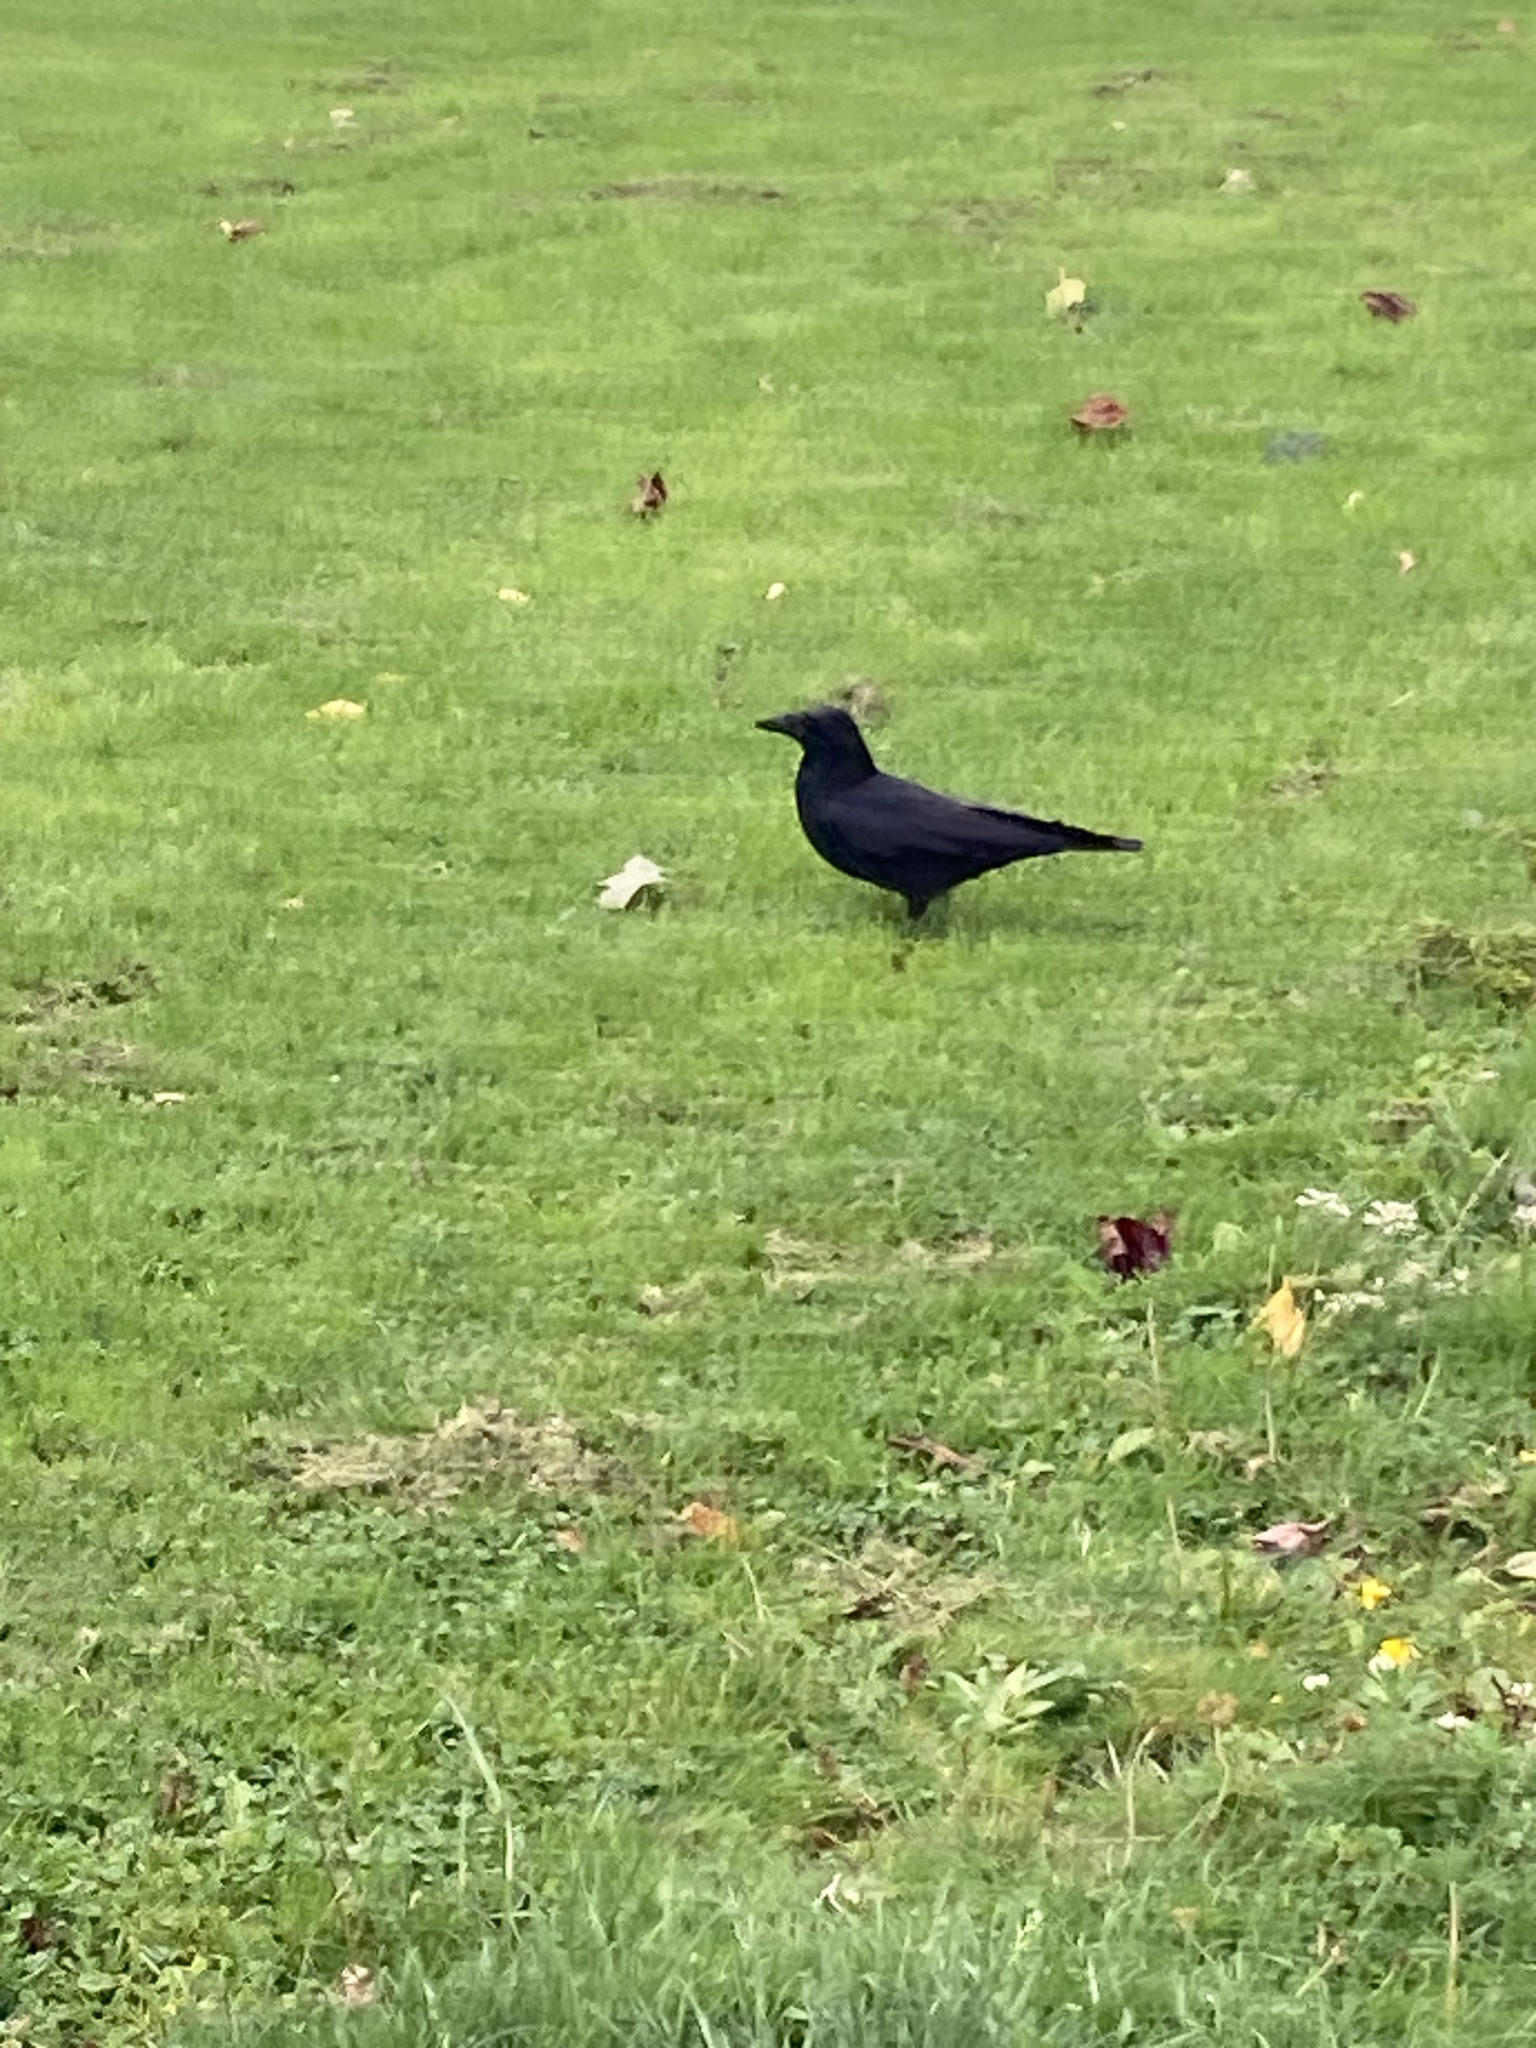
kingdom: Animalia
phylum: Chordata
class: Aves
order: Passeriformes
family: Corvidae
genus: Corvus
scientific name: Corvus corone
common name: Carrion crow
